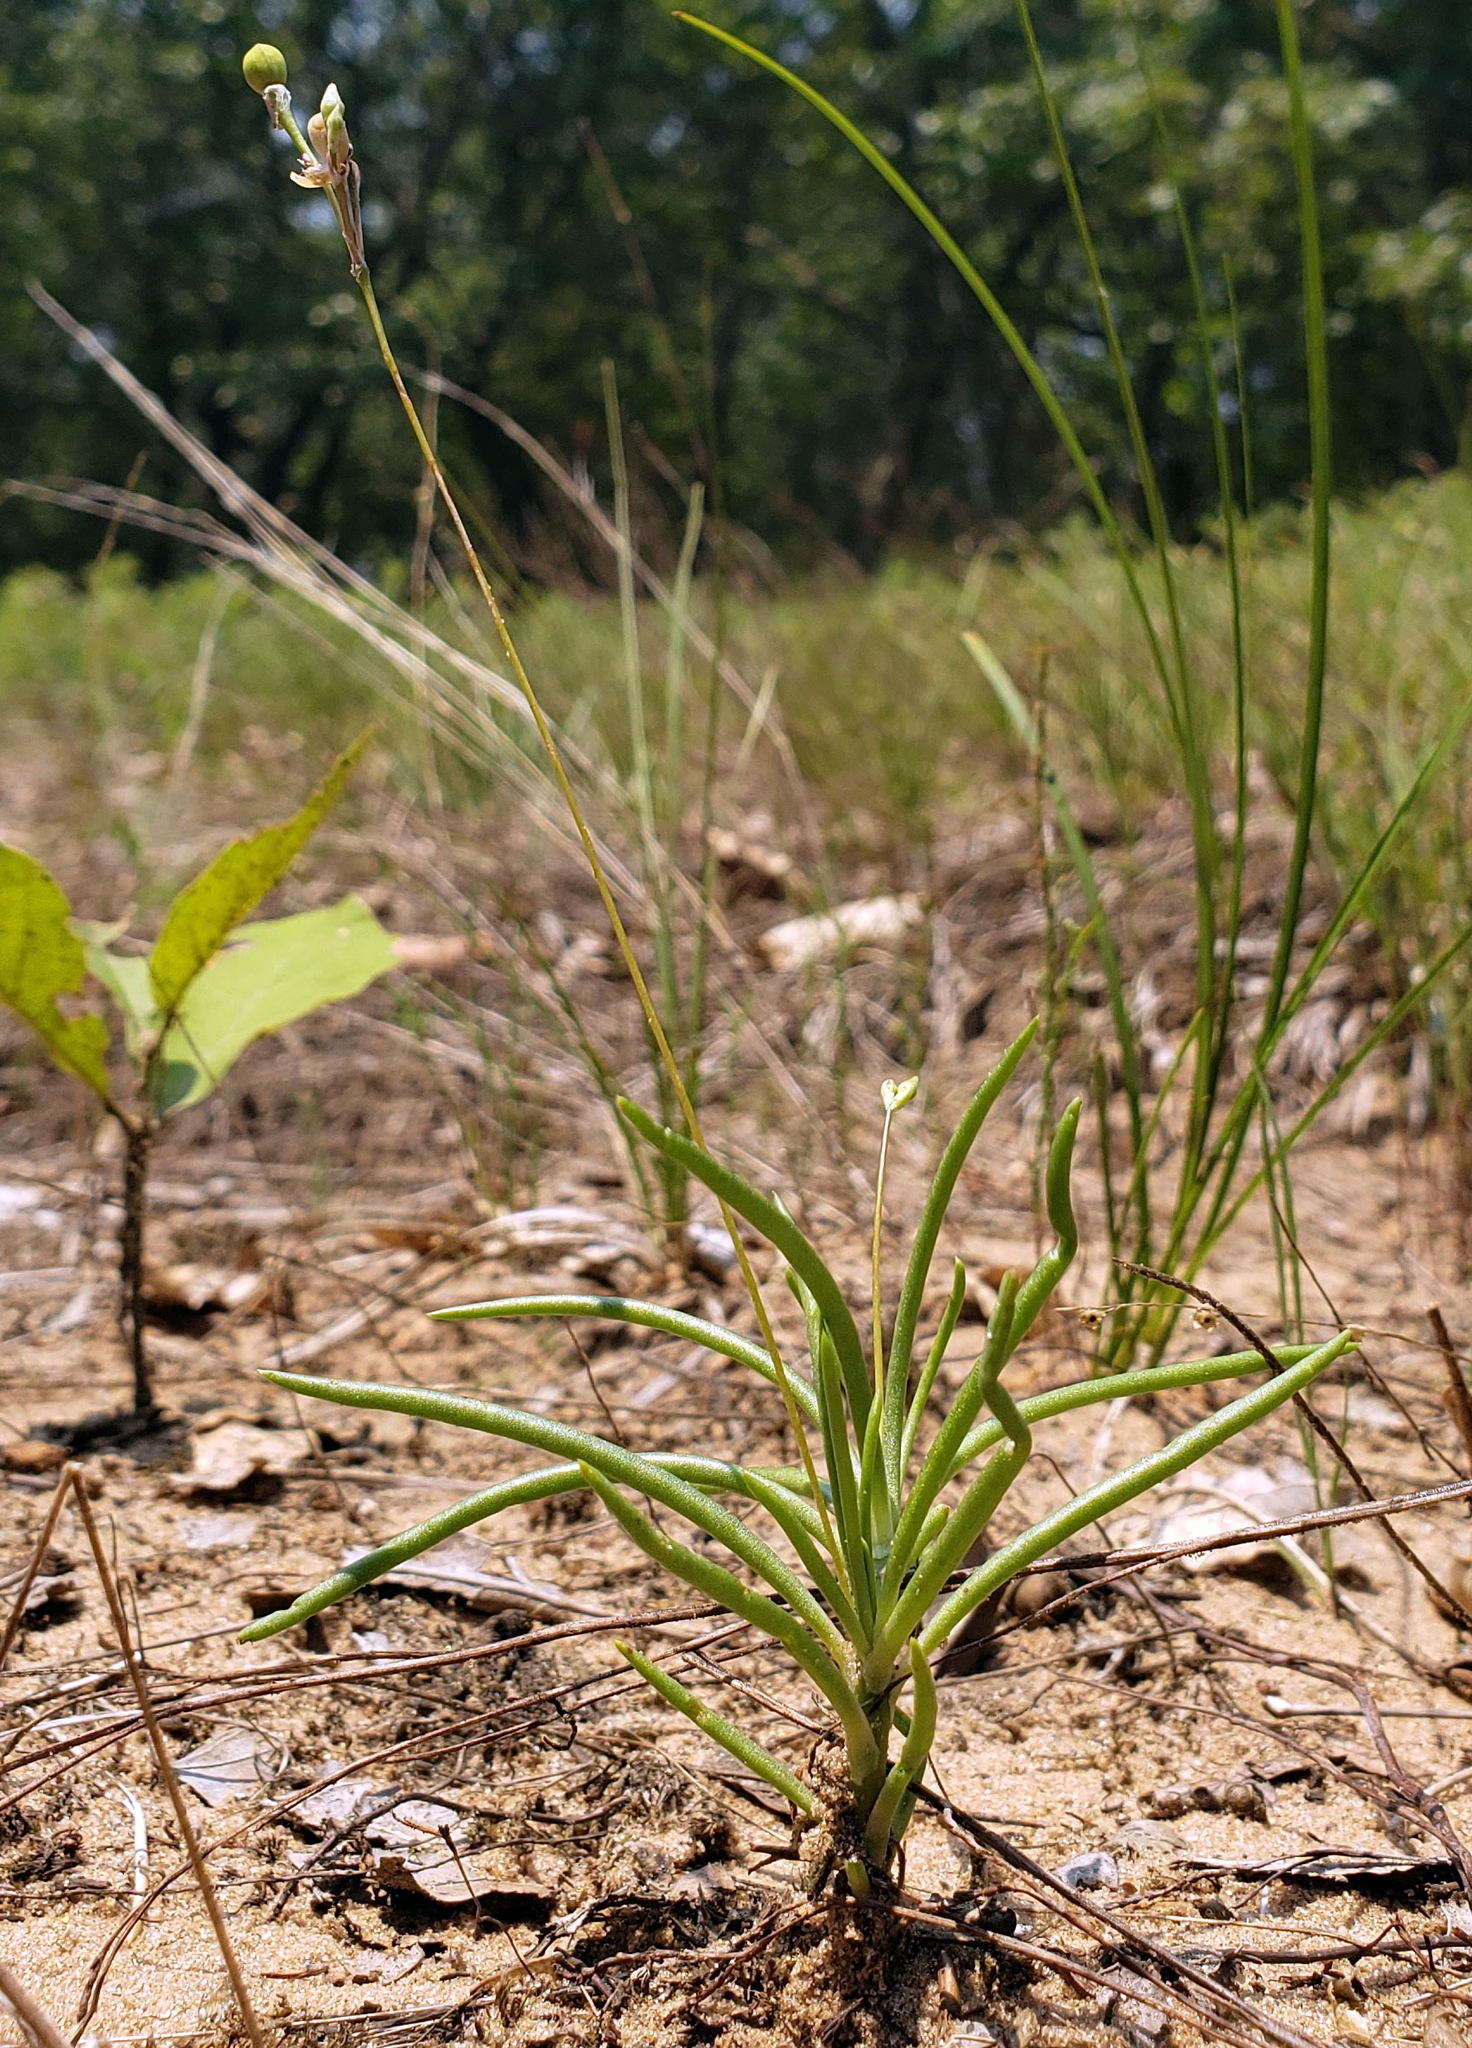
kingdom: Plantae
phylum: Tracheophyta
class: Magnoliopsida
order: Caryophyllales
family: Montiaceae
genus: Phemeranthus
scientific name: Phemeranthus rugospermus
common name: Prairie fameflower
